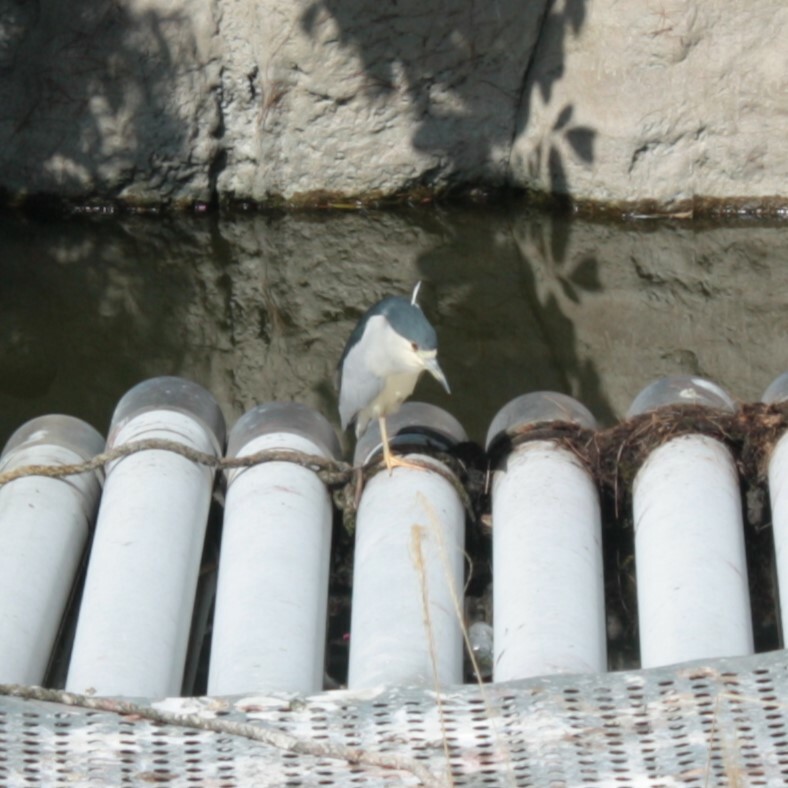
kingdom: Animalia
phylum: Chordata
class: Aves
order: Pelecaniformes
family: Ardeidae
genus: Nycticorax
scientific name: Nycticorax nycticorax
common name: Black-crowned night heron
